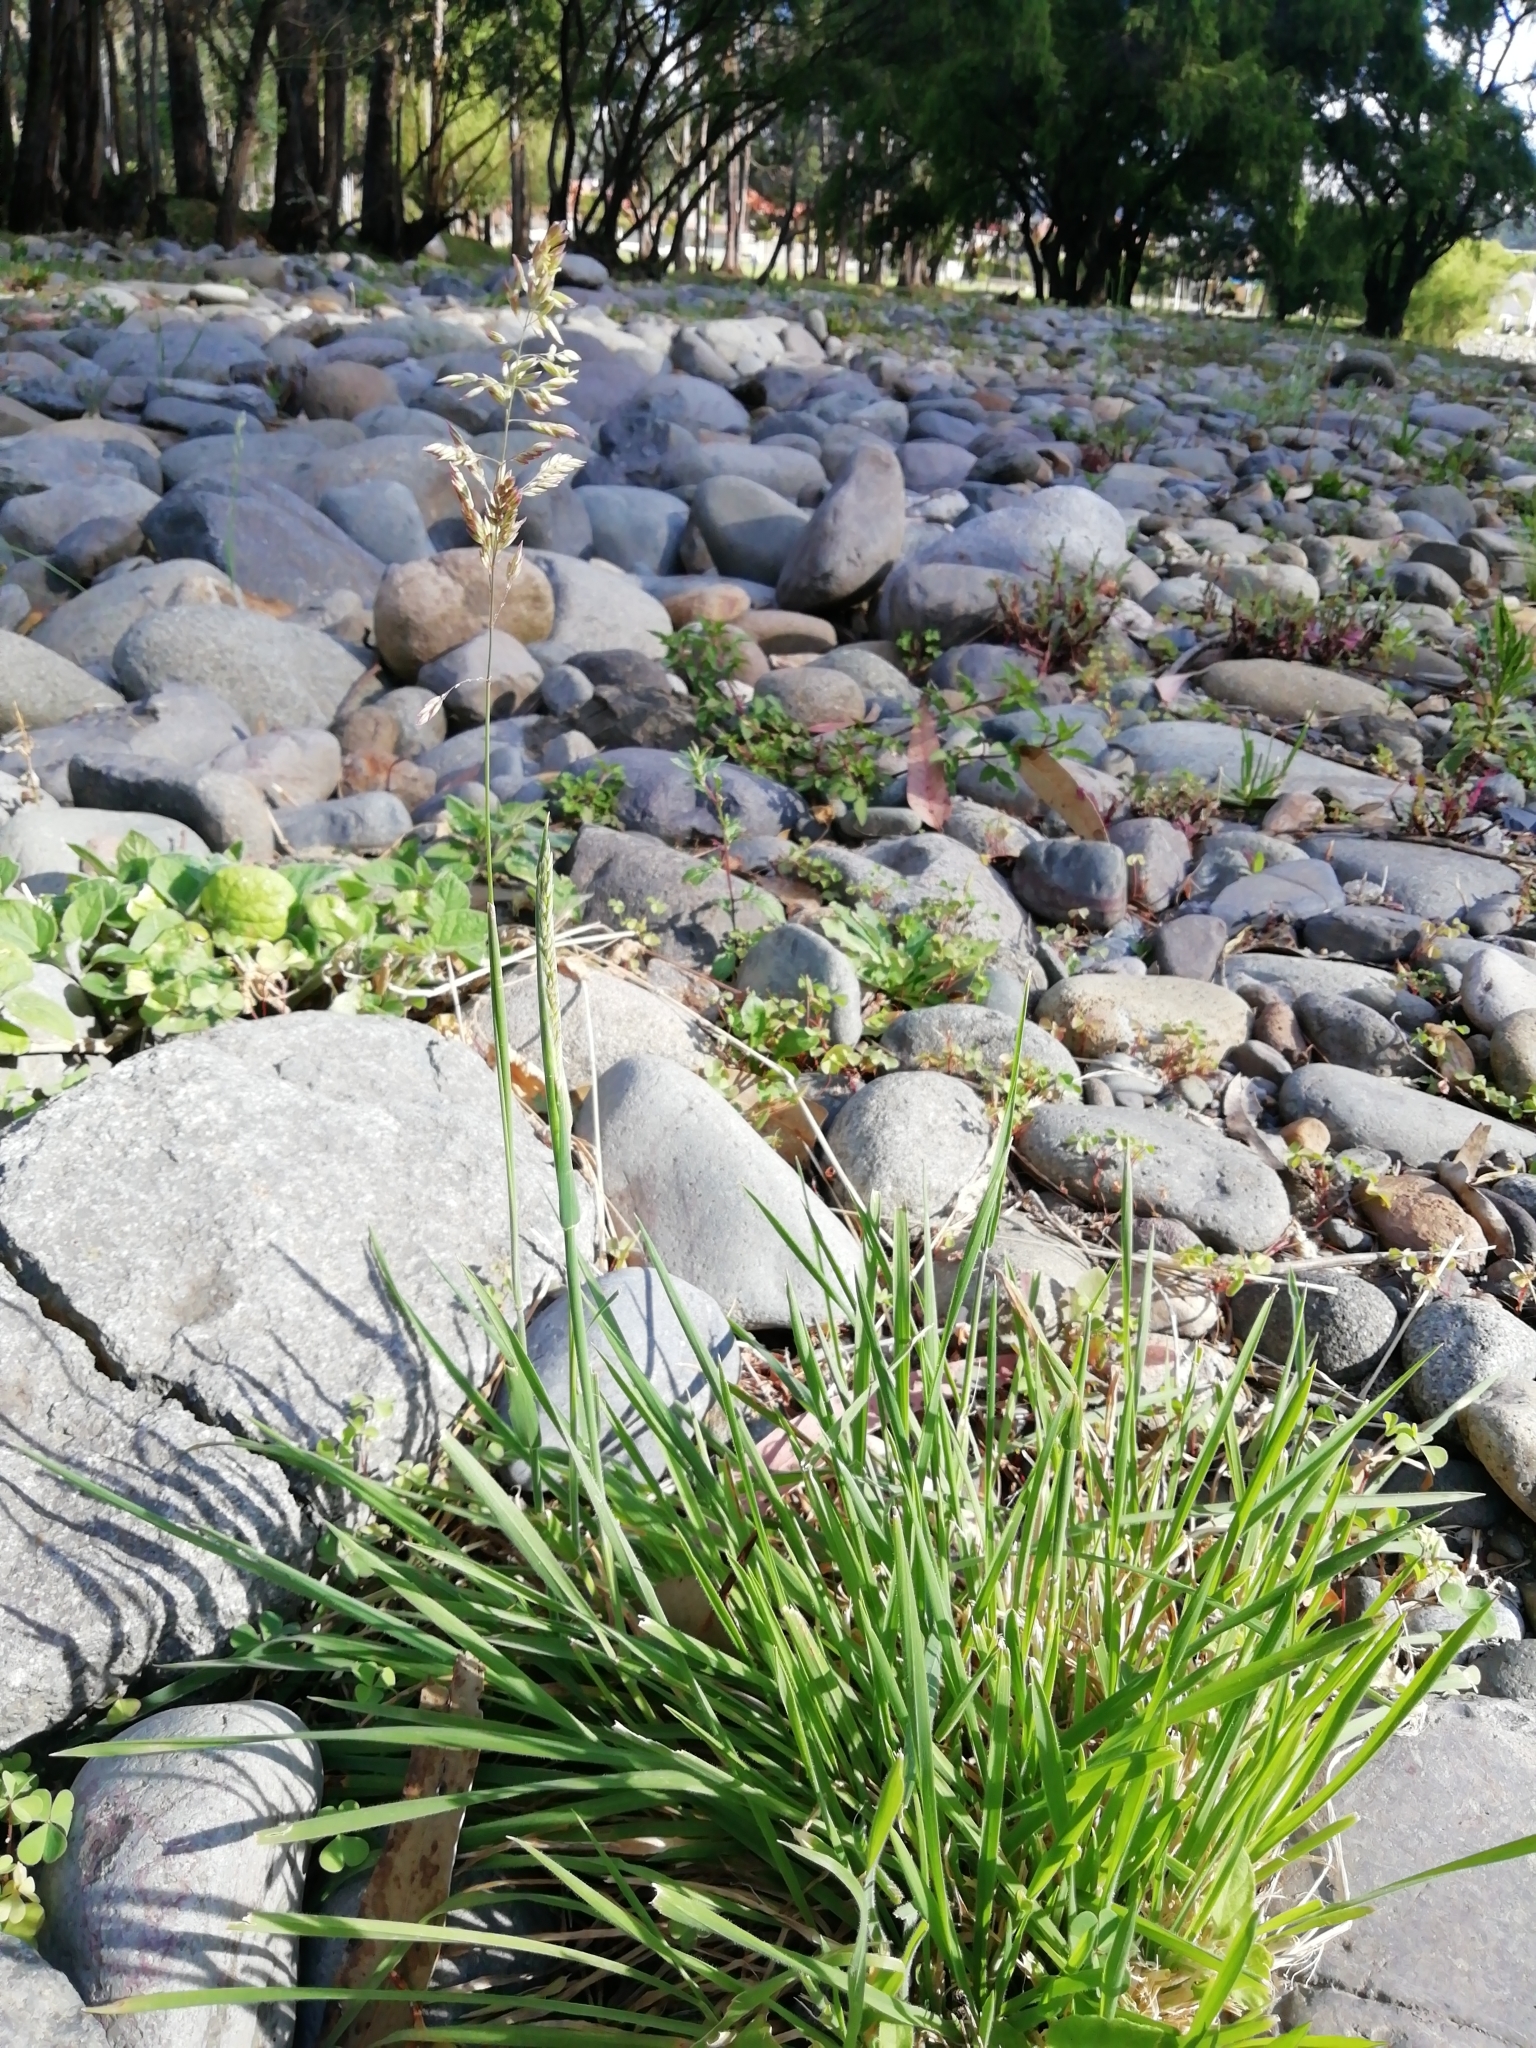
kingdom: Plantae
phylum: Tracheophyta
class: Liliopsida
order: Poales
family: Poaceae
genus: Holcus
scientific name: Holcus lanatus
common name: Yorkshire-fog
